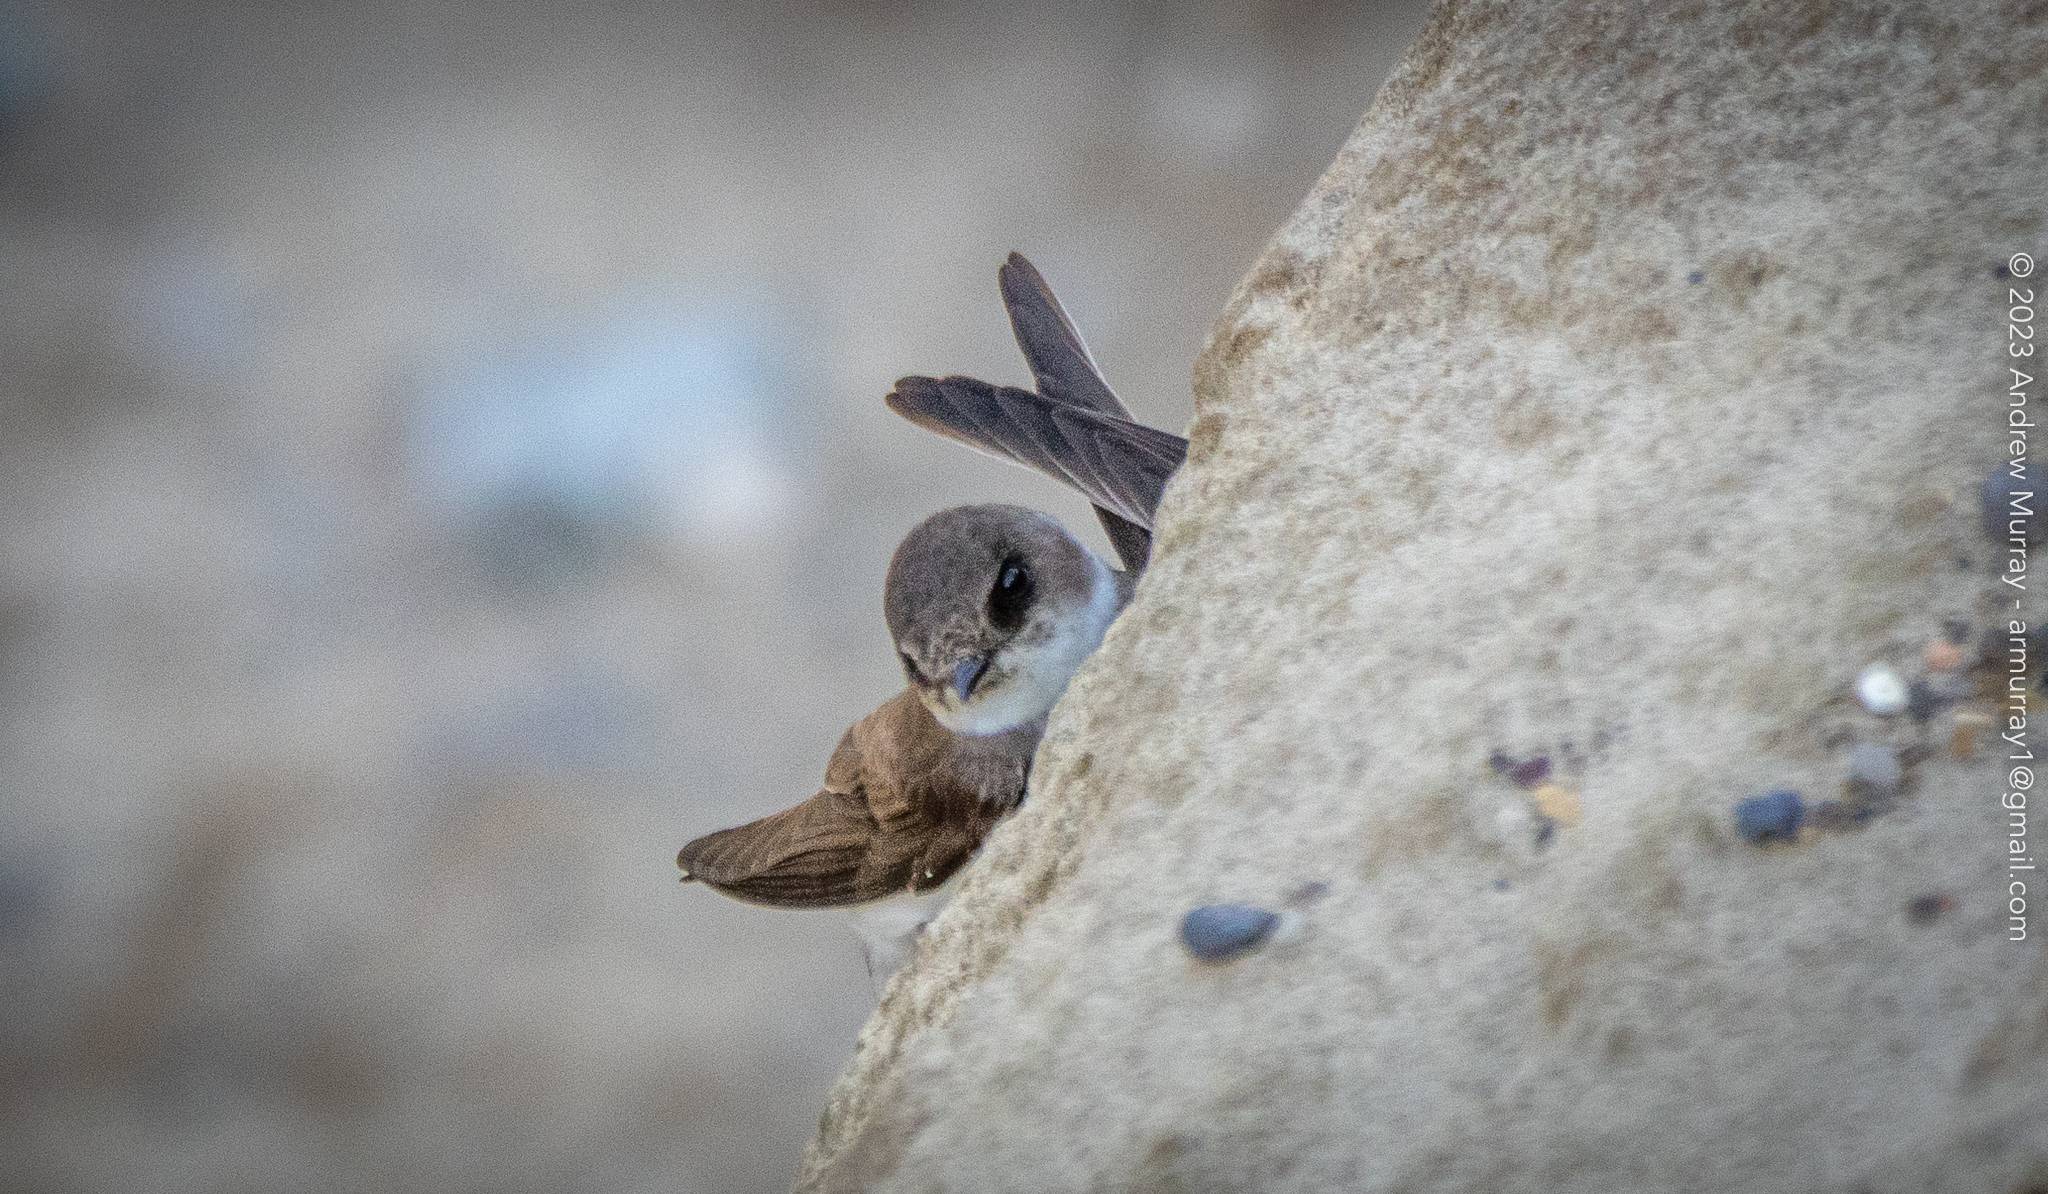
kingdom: Animalia
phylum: Chordata
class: Aves
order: Passeriformes
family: Hirundinidae
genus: Riparia
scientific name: Riparia riparia
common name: Sand martin
